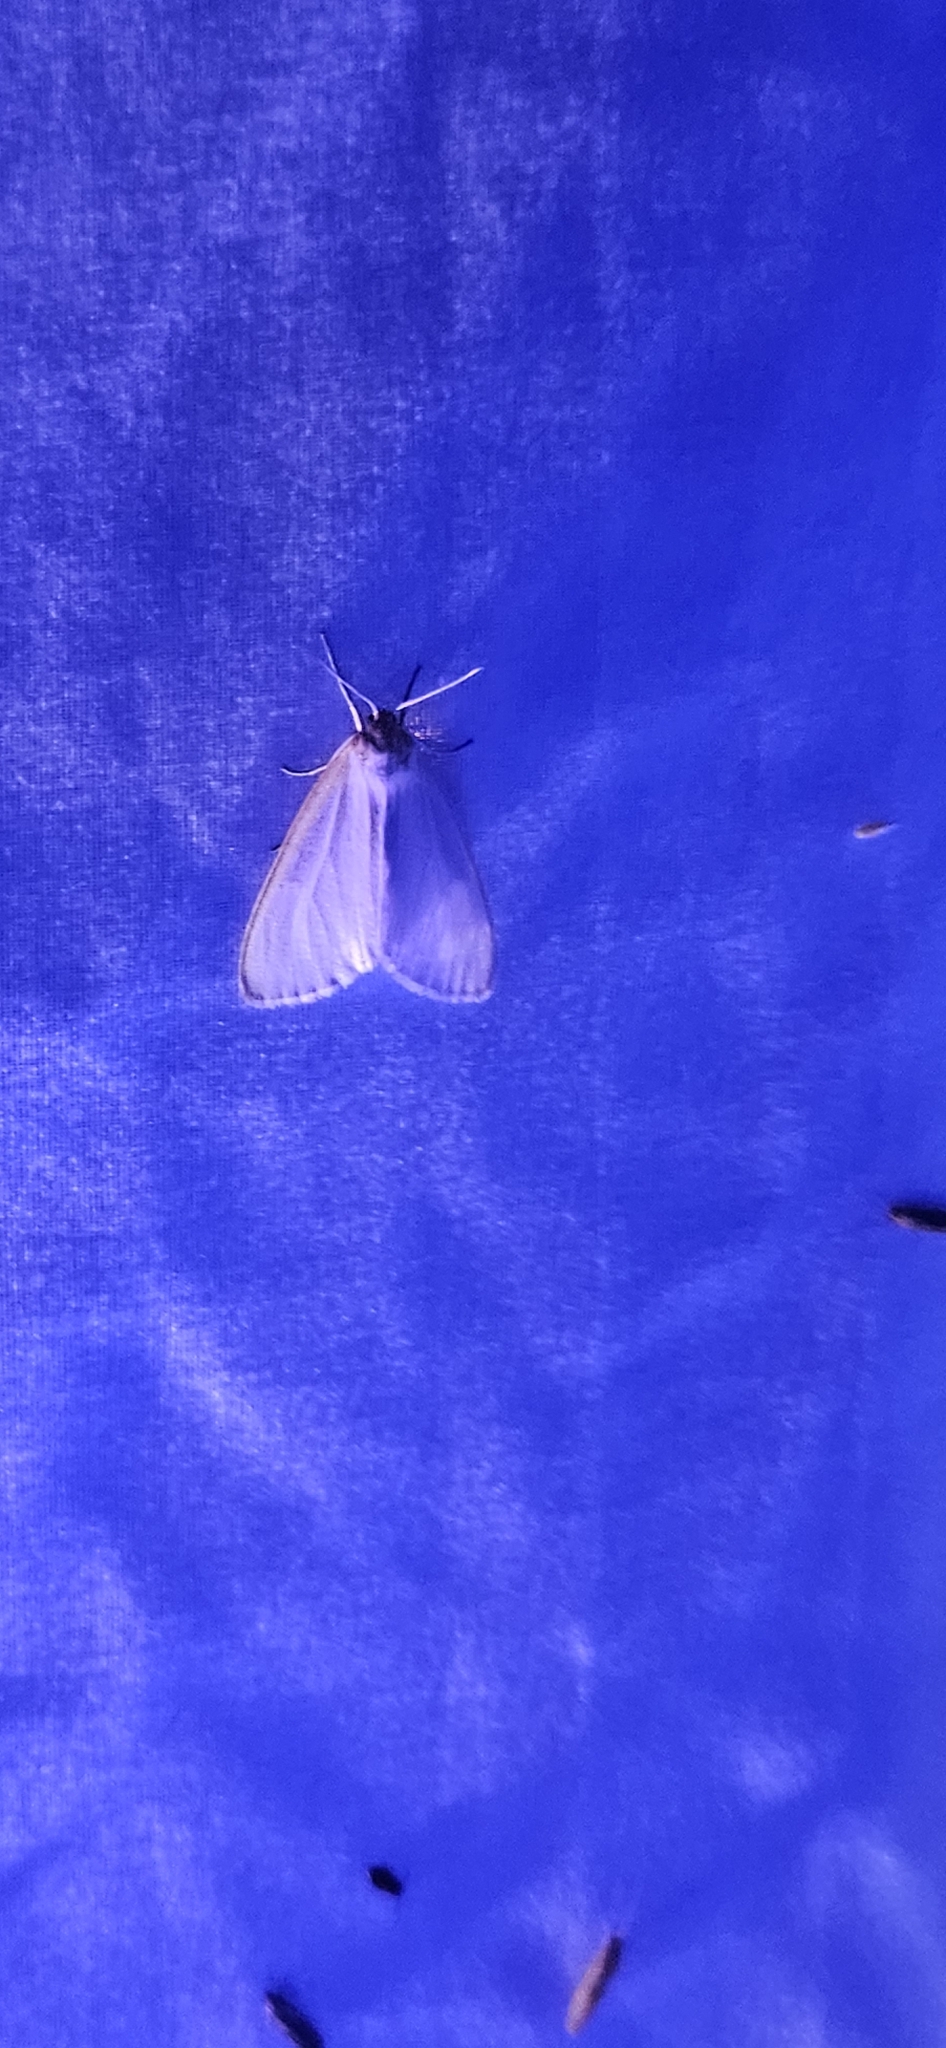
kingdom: Animalia
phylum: Arthropoda
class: Insecta
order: Lepidoptera
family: Erebidae
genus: Cycnia
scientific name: Cycnia tenera
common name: Delicate cycnia moth
